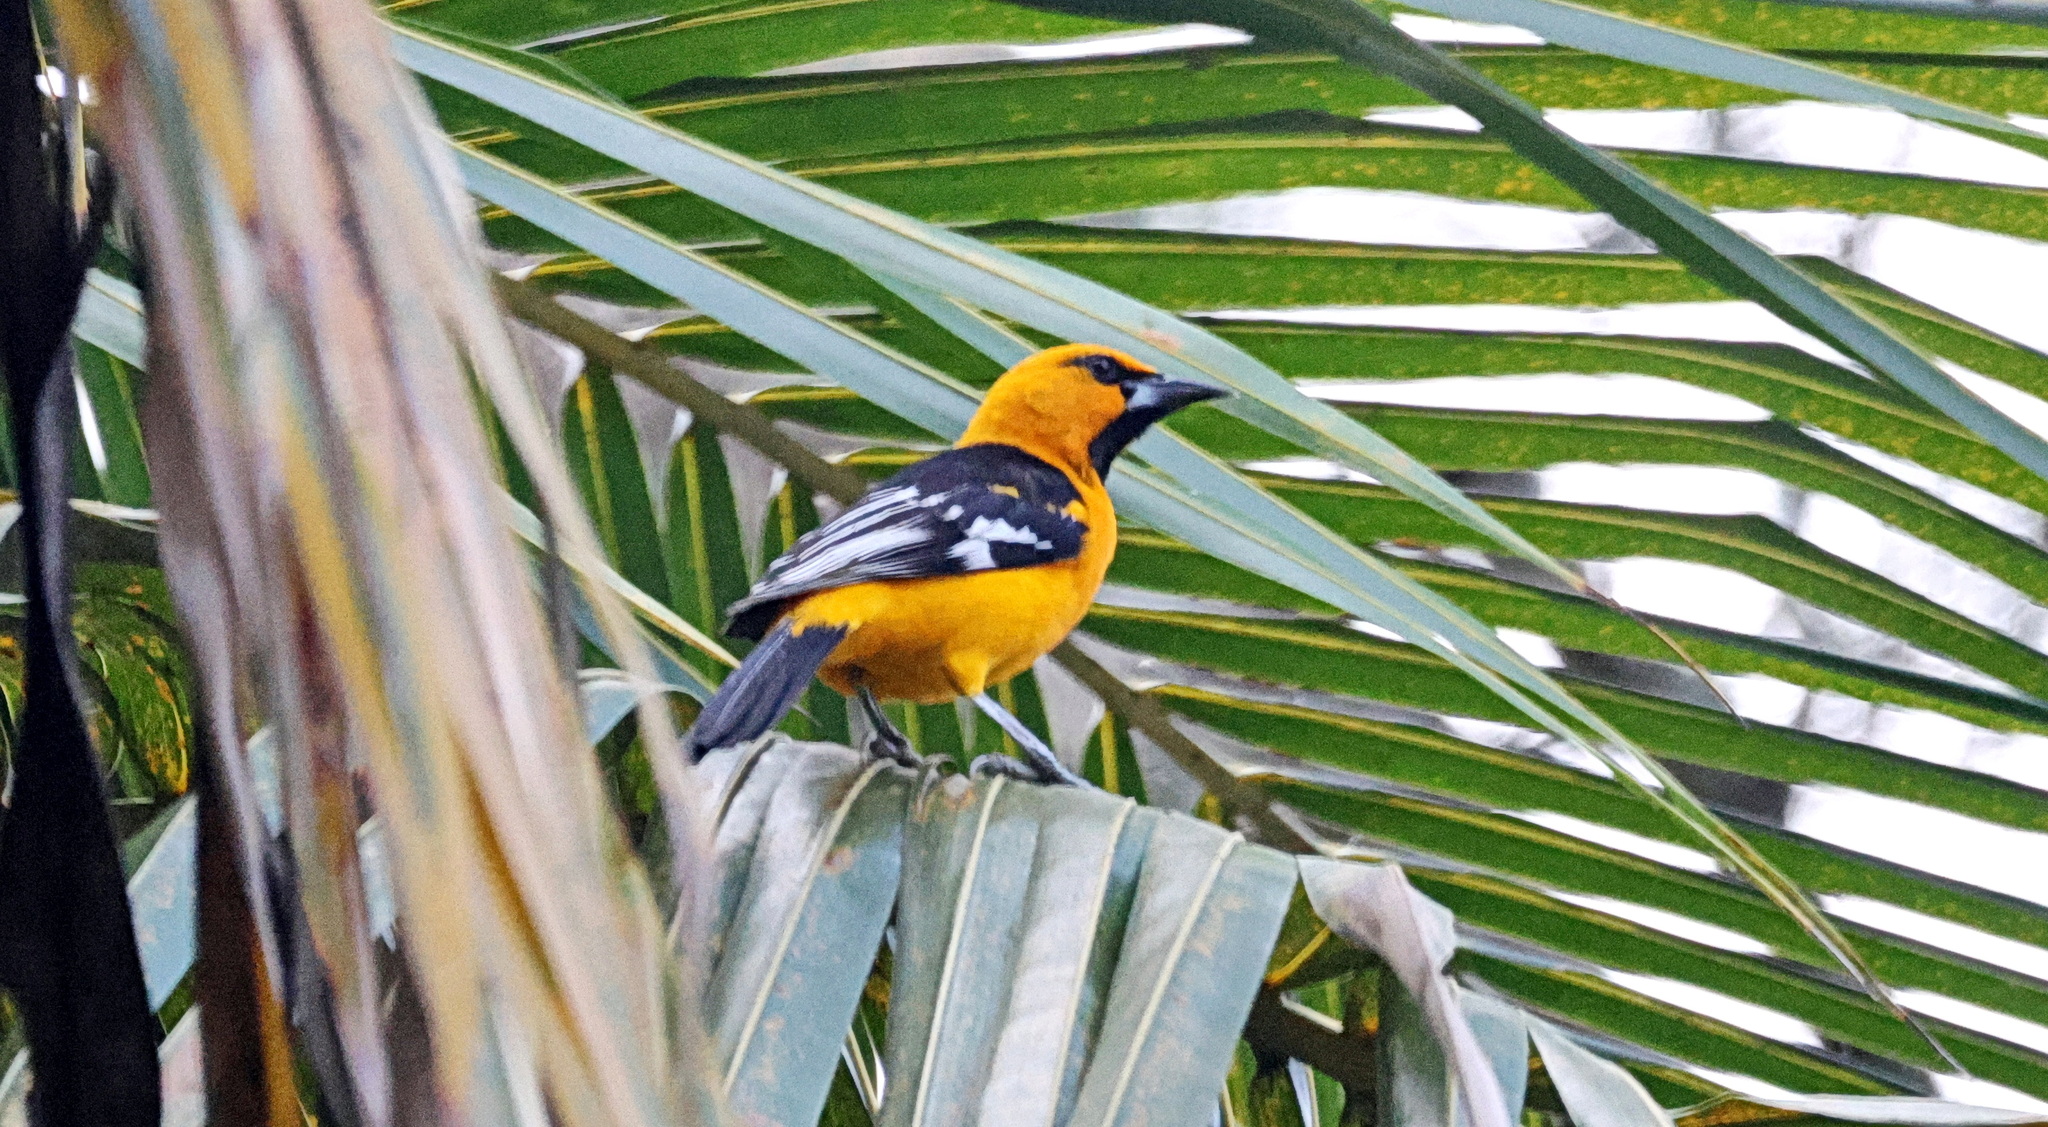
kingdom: Animalia
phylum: Chordata
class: Aves
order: Passeriformes
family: Icteridae
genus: Icterus
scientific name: Icterus gularis
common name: Altamira oriole
